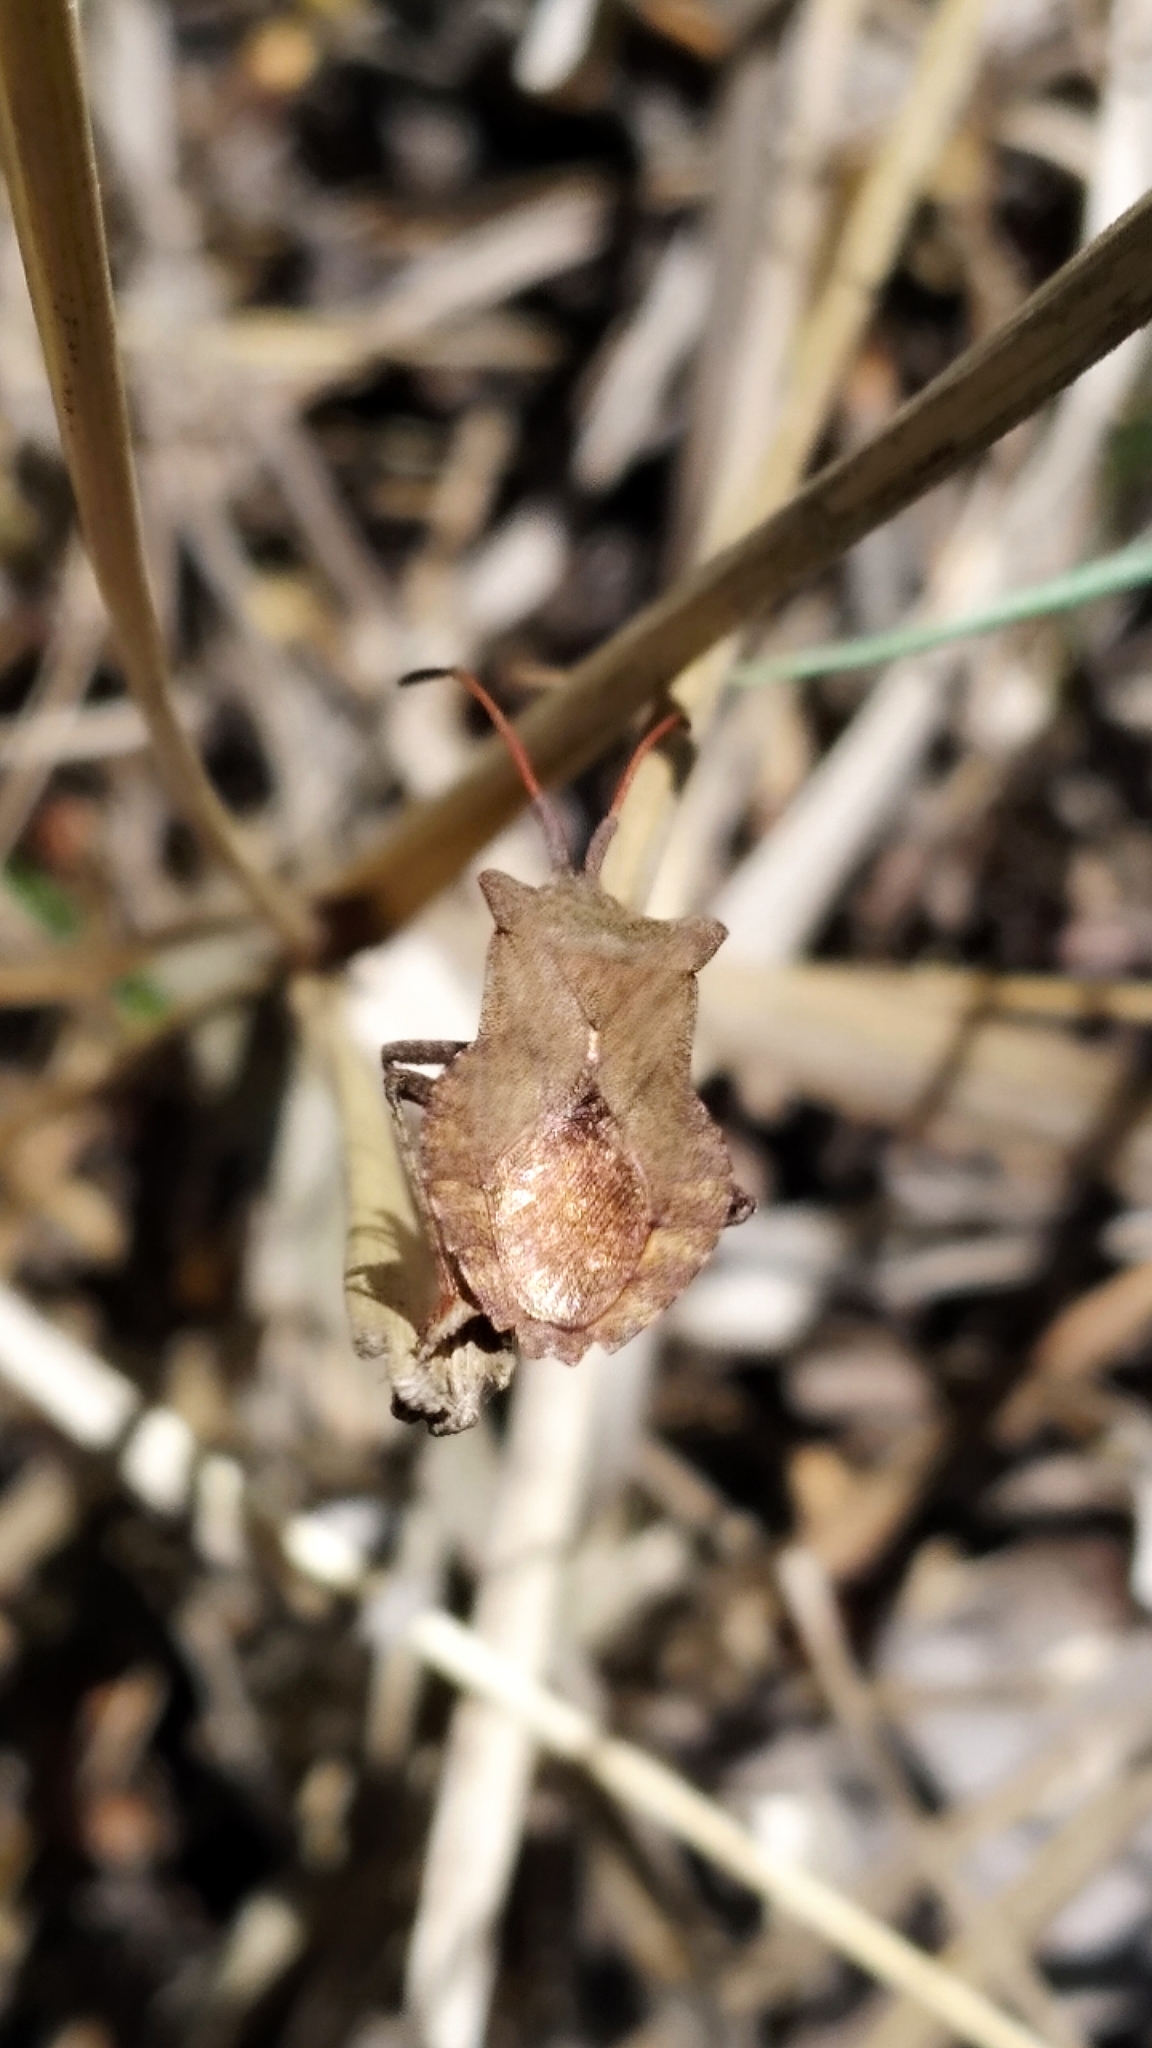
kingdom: Animalia
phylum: Arthropoda
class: Insecta
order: Hemiptera
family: Coreidae
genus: Coreus
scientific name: Coreus marginatus
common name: Dock bug
